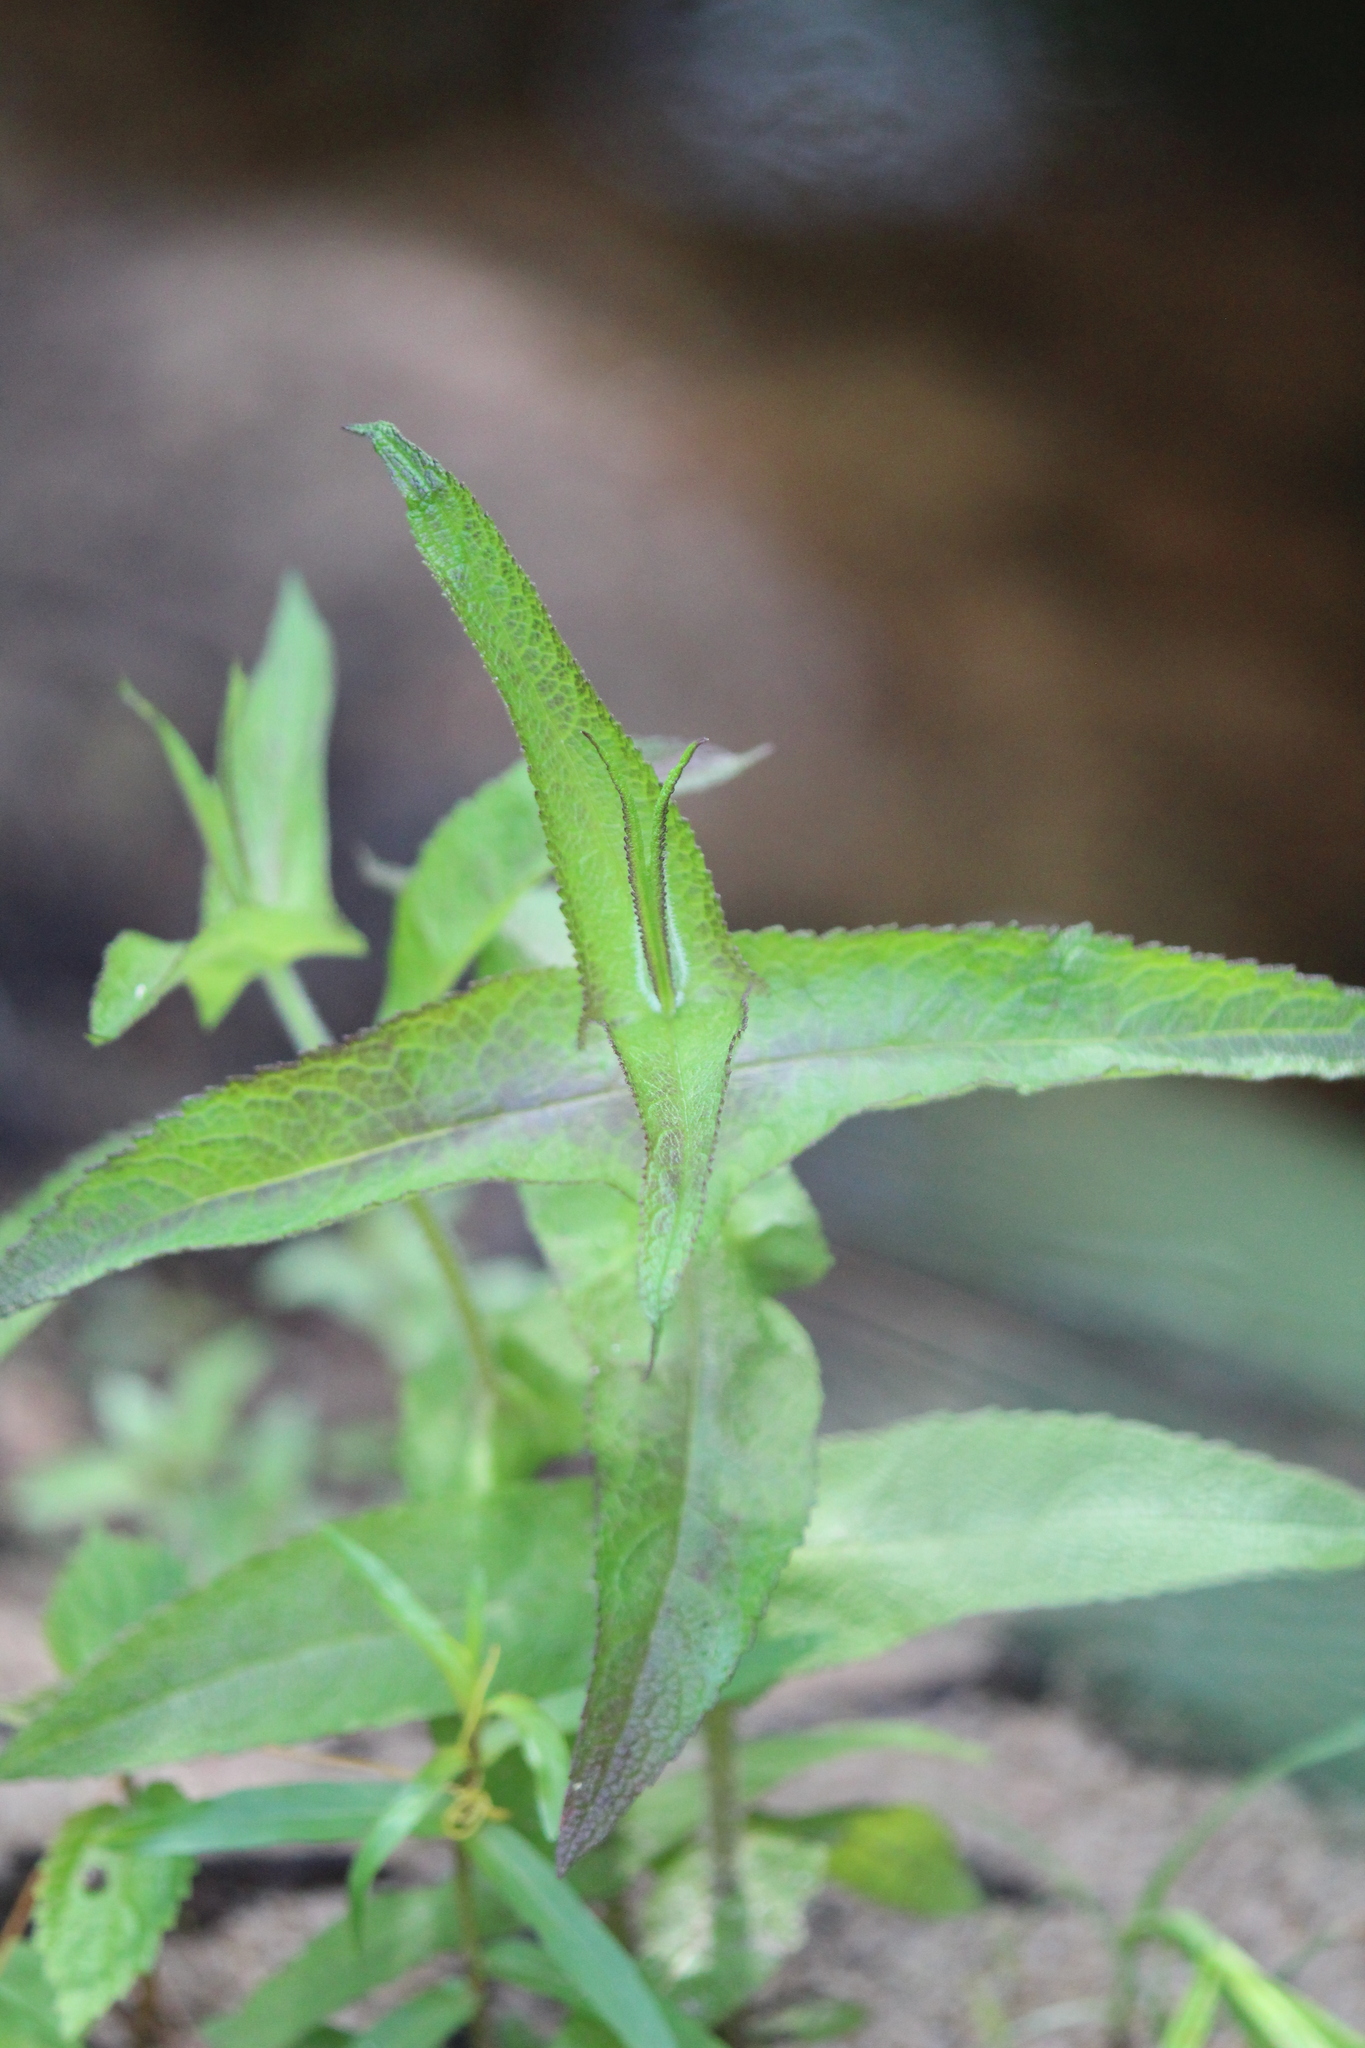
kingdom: Plantae
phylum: Tracheophyta
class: Magnoliopsida
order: Asterales
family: Asteraceae
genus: Eupatorium
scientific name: Eupatorium perfoliatum
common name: Boneset
